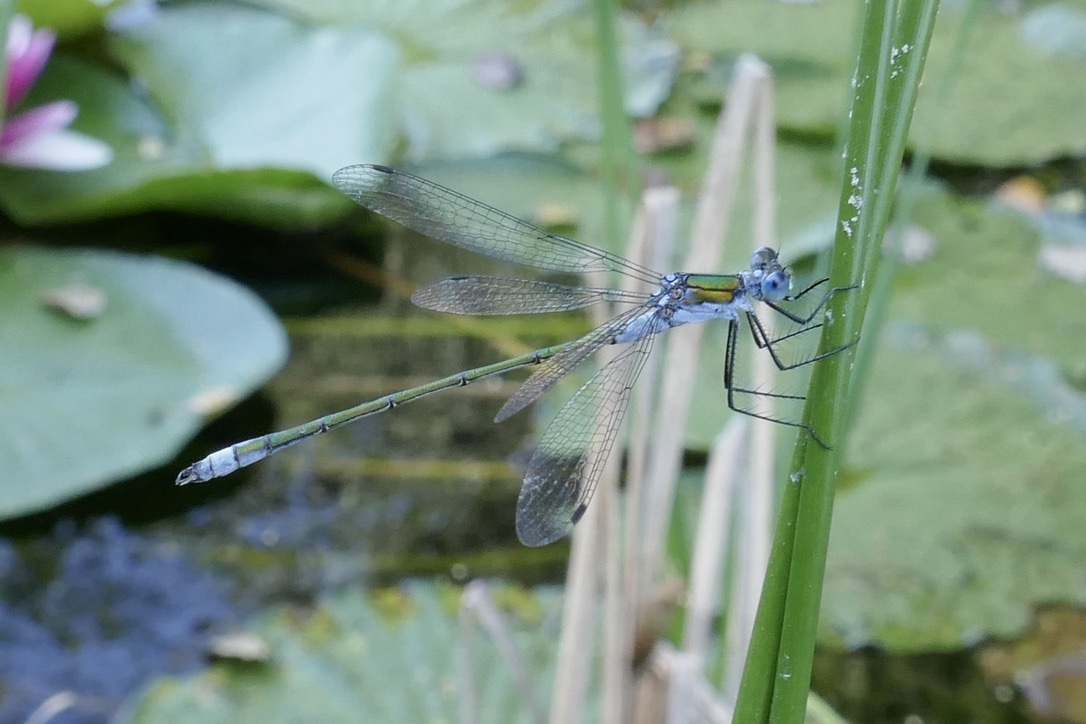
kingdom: Animalia
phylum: Arthropoda
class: Insecta
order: Odonata
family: Lestidae
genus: Lestes
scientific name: Lestes sponsa
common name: Common spreadwing
